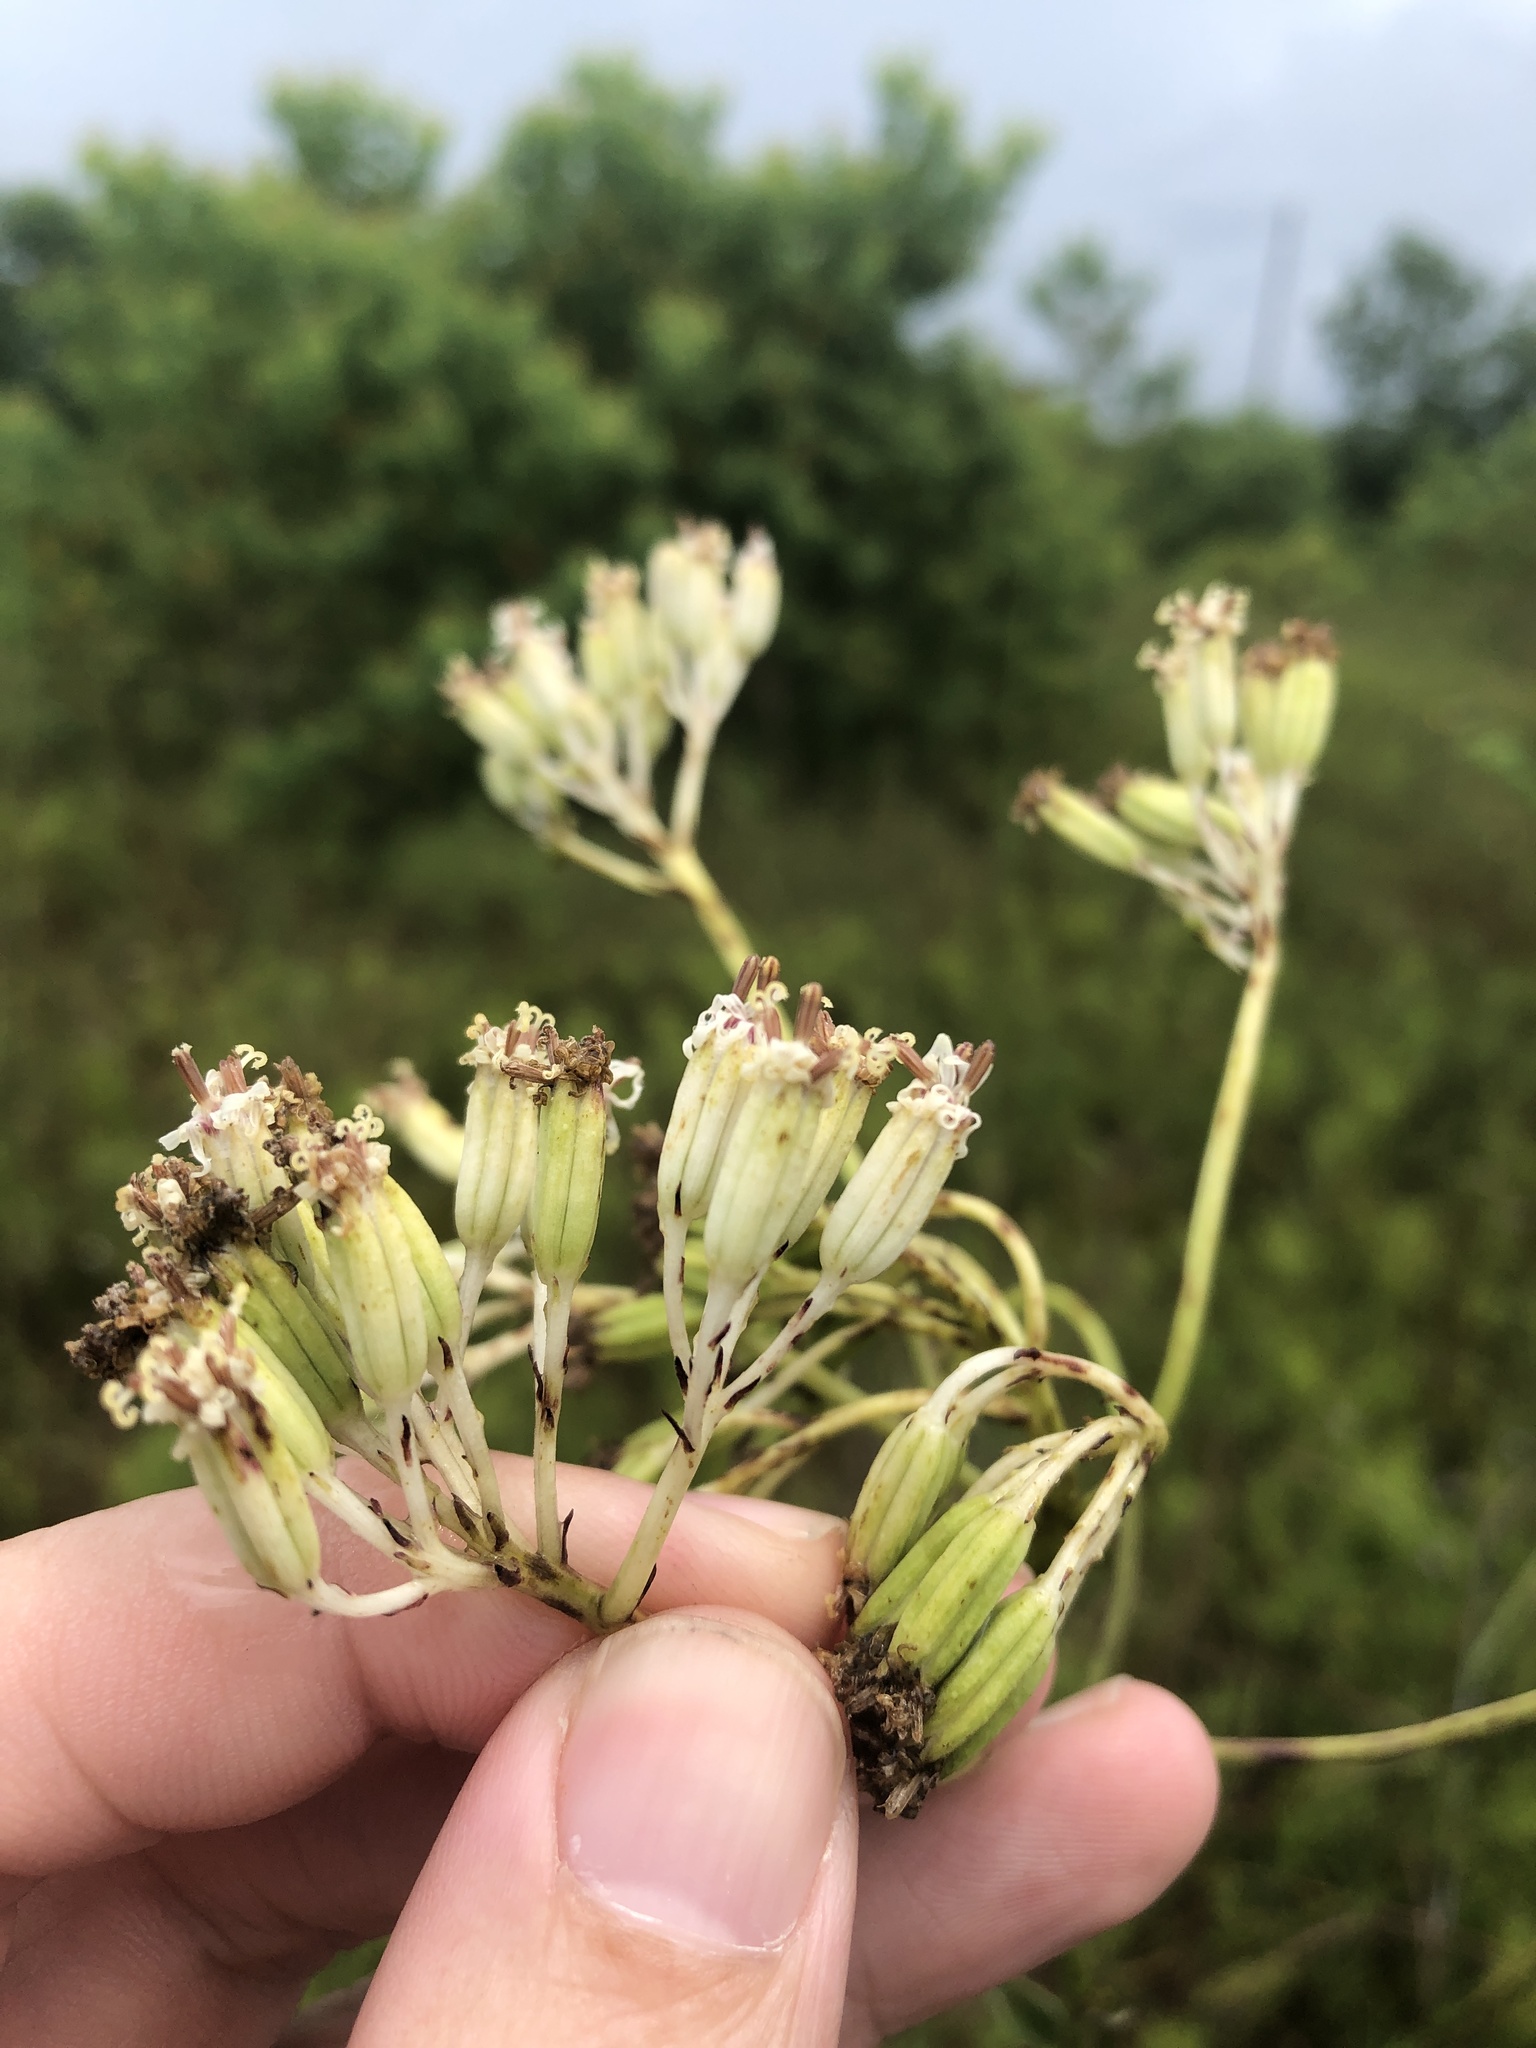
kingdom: Plantae
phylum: Tracheophyta
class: Magnoliopsida
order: Asterales
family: Asteraceae
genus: Arnoglossum
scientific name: Arnoglossum ovatum
